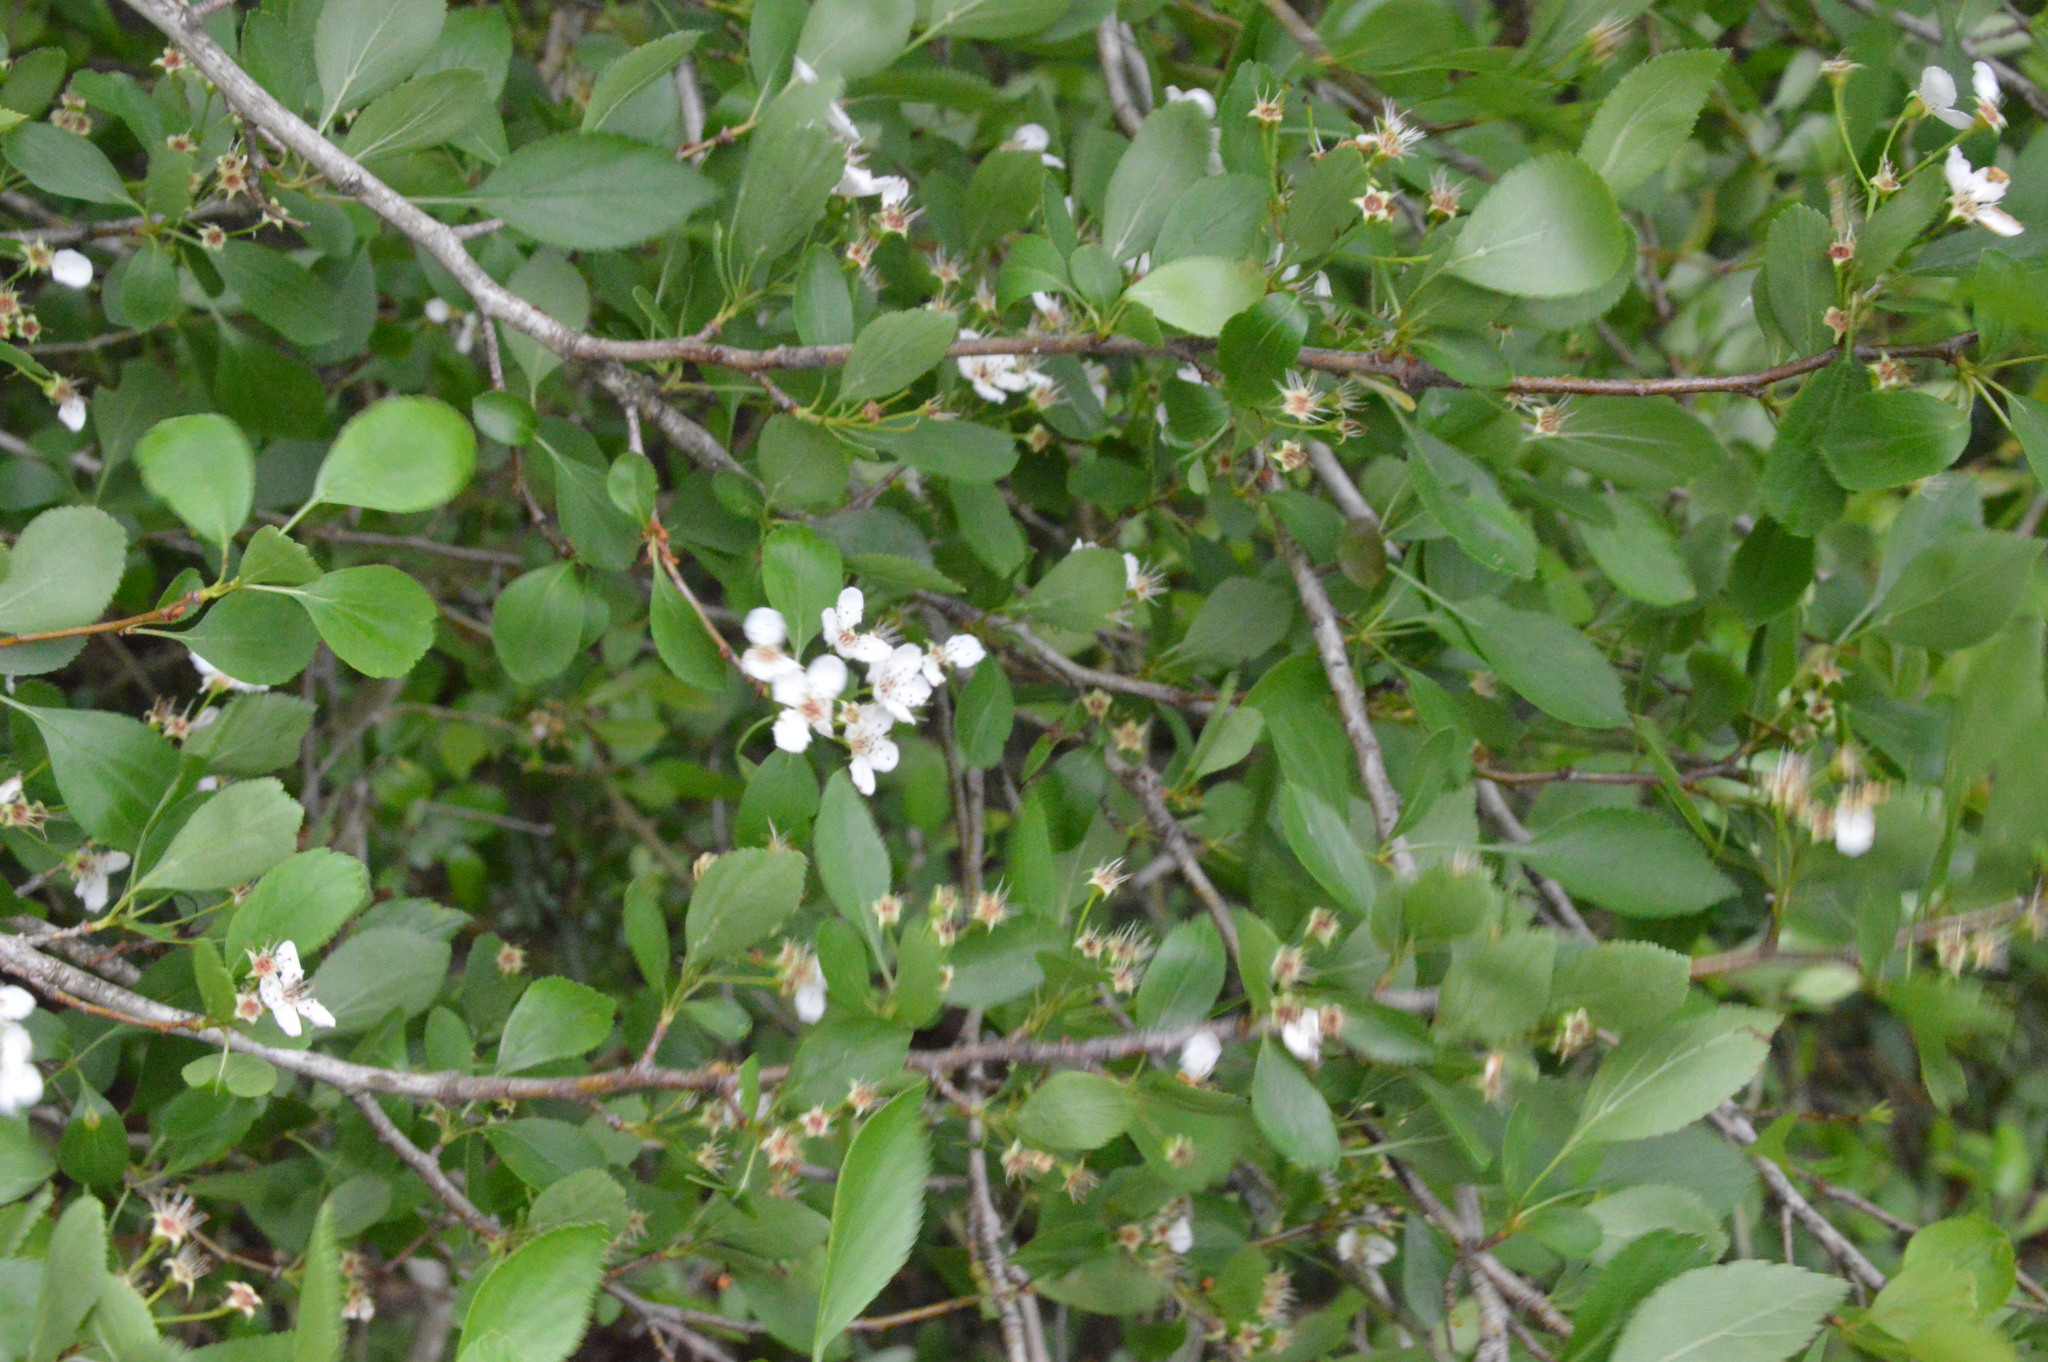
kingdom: Plantae
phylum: Tracheophyta
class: Magnoliopsida
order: Rosales
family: Rosaceae
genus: Crataegus
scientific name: Crataegus viridis
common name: Southernthorn
